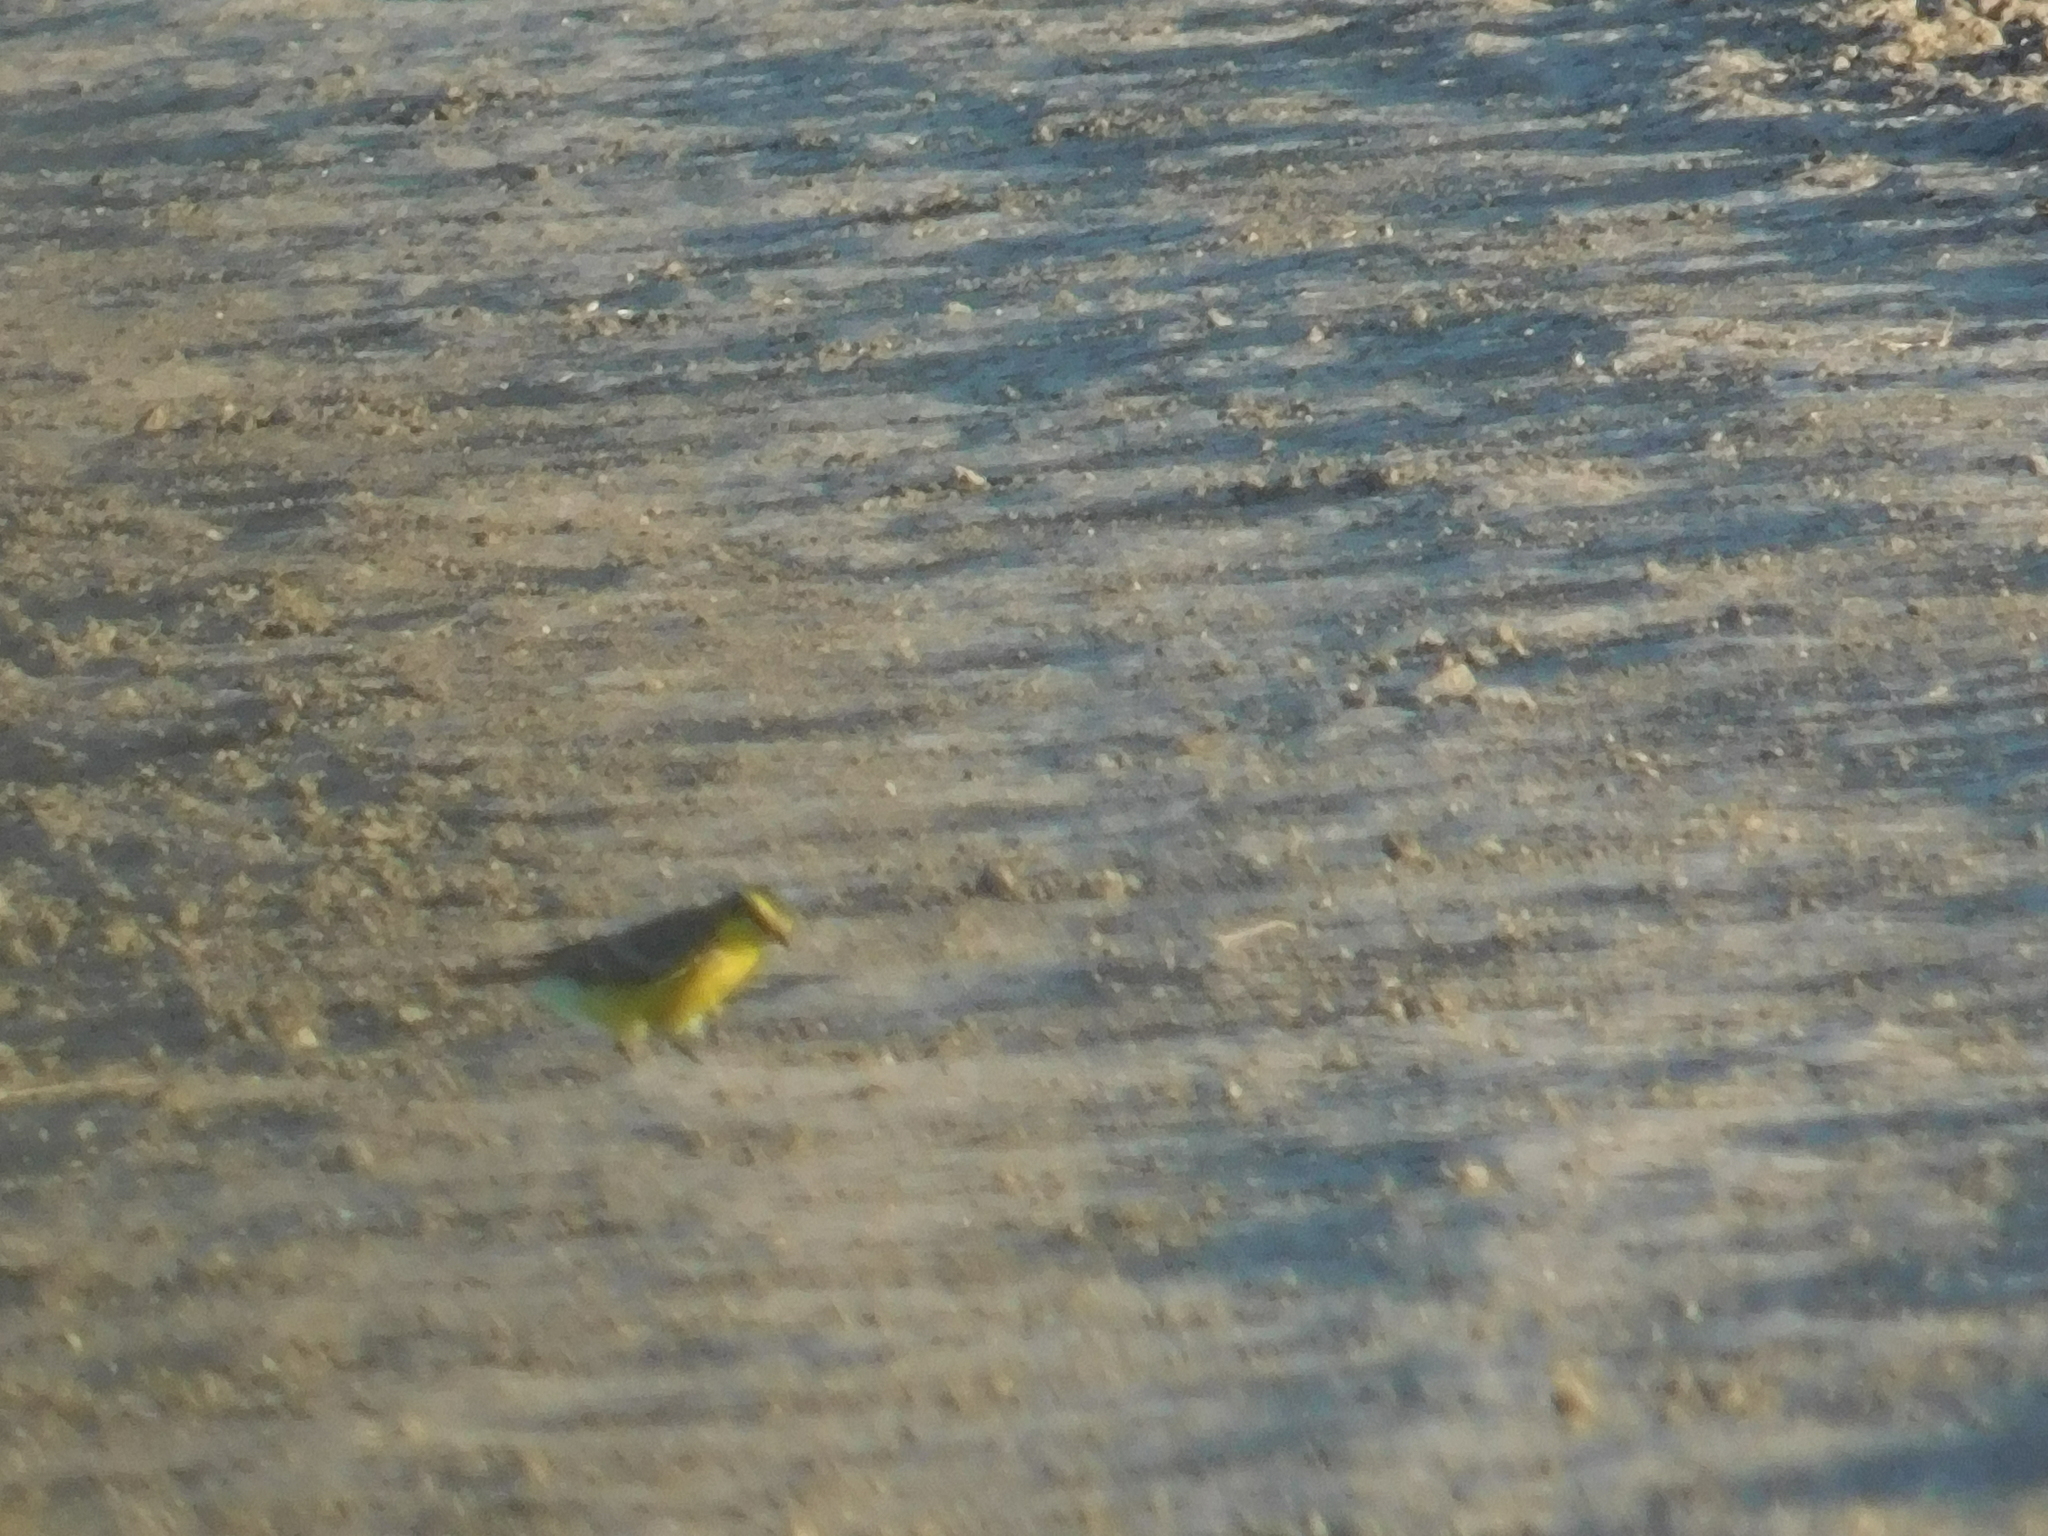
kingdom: Animalia
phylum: Chordata
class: Aves
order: Passeriformes
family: Tyrannidae
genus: Satrapa
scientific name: Satrapa icterophrys
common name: Yellow-browed tyrant
